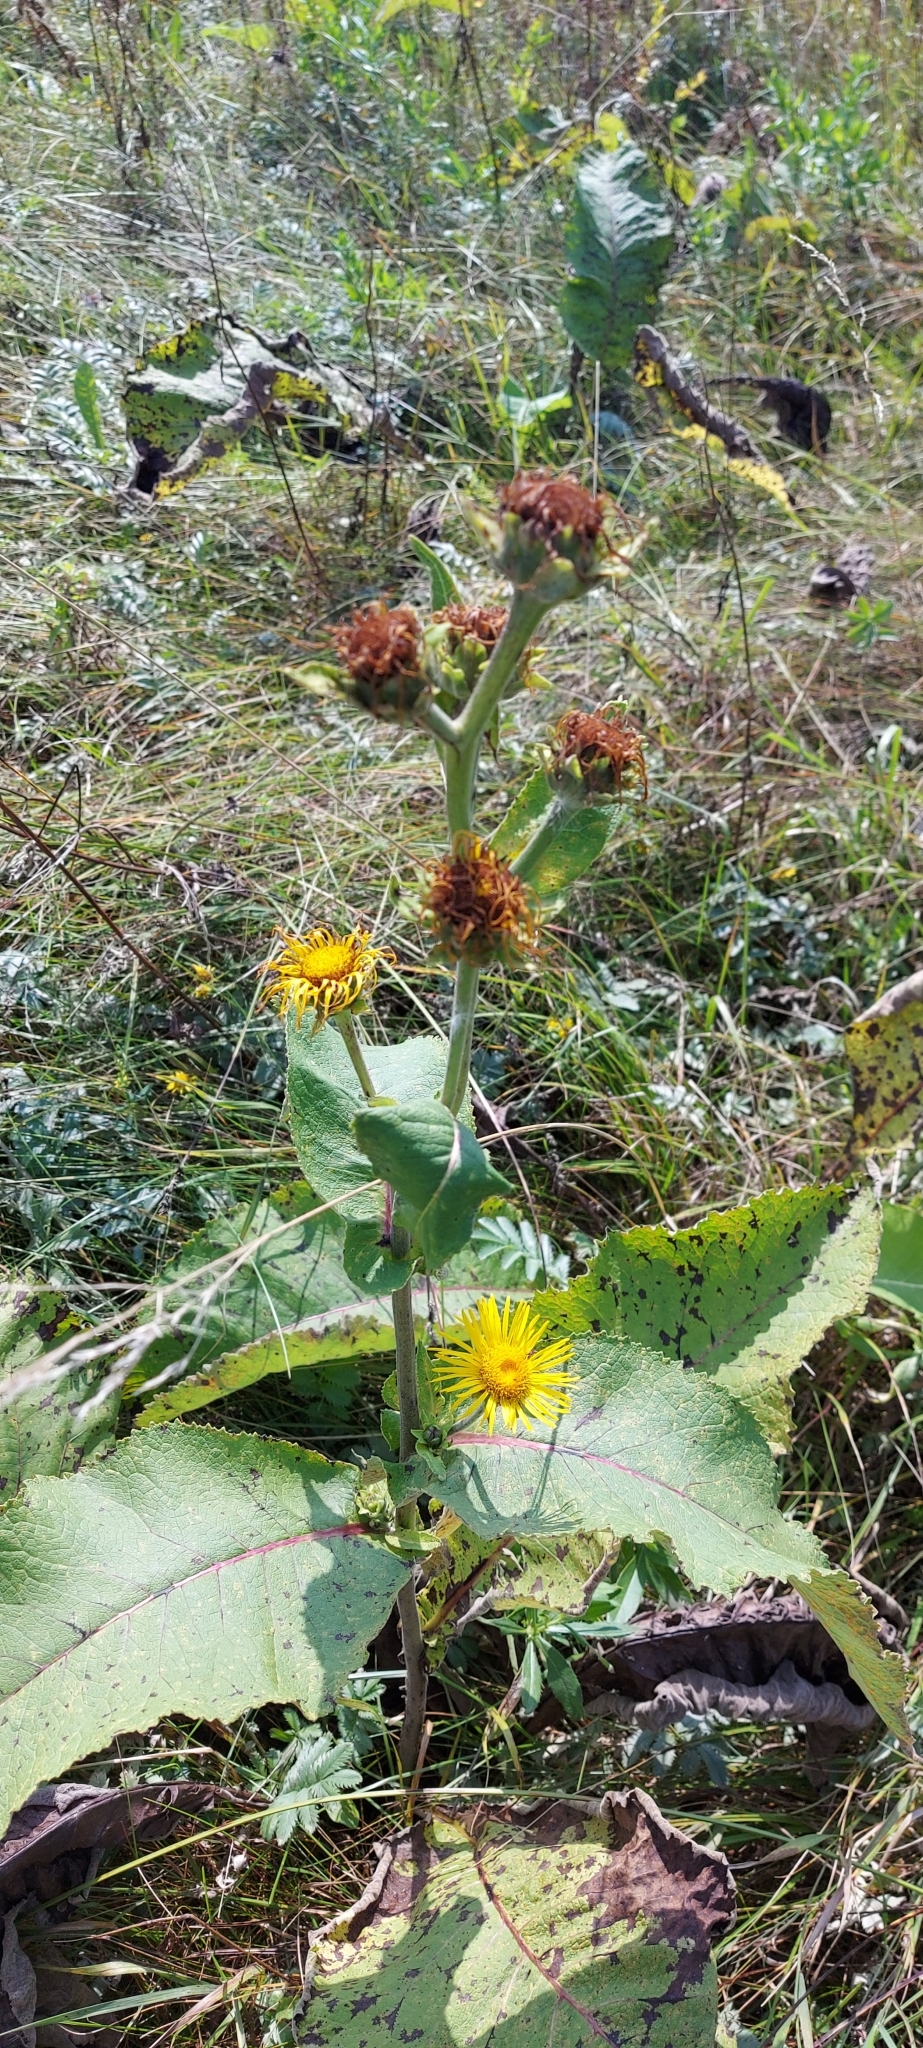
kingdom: Plantae
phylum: Tracheophyta
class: Magnoliopsida
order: Asterales
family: Asteraceae
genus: Inula
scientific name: Inula helenium
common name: Elecampane
